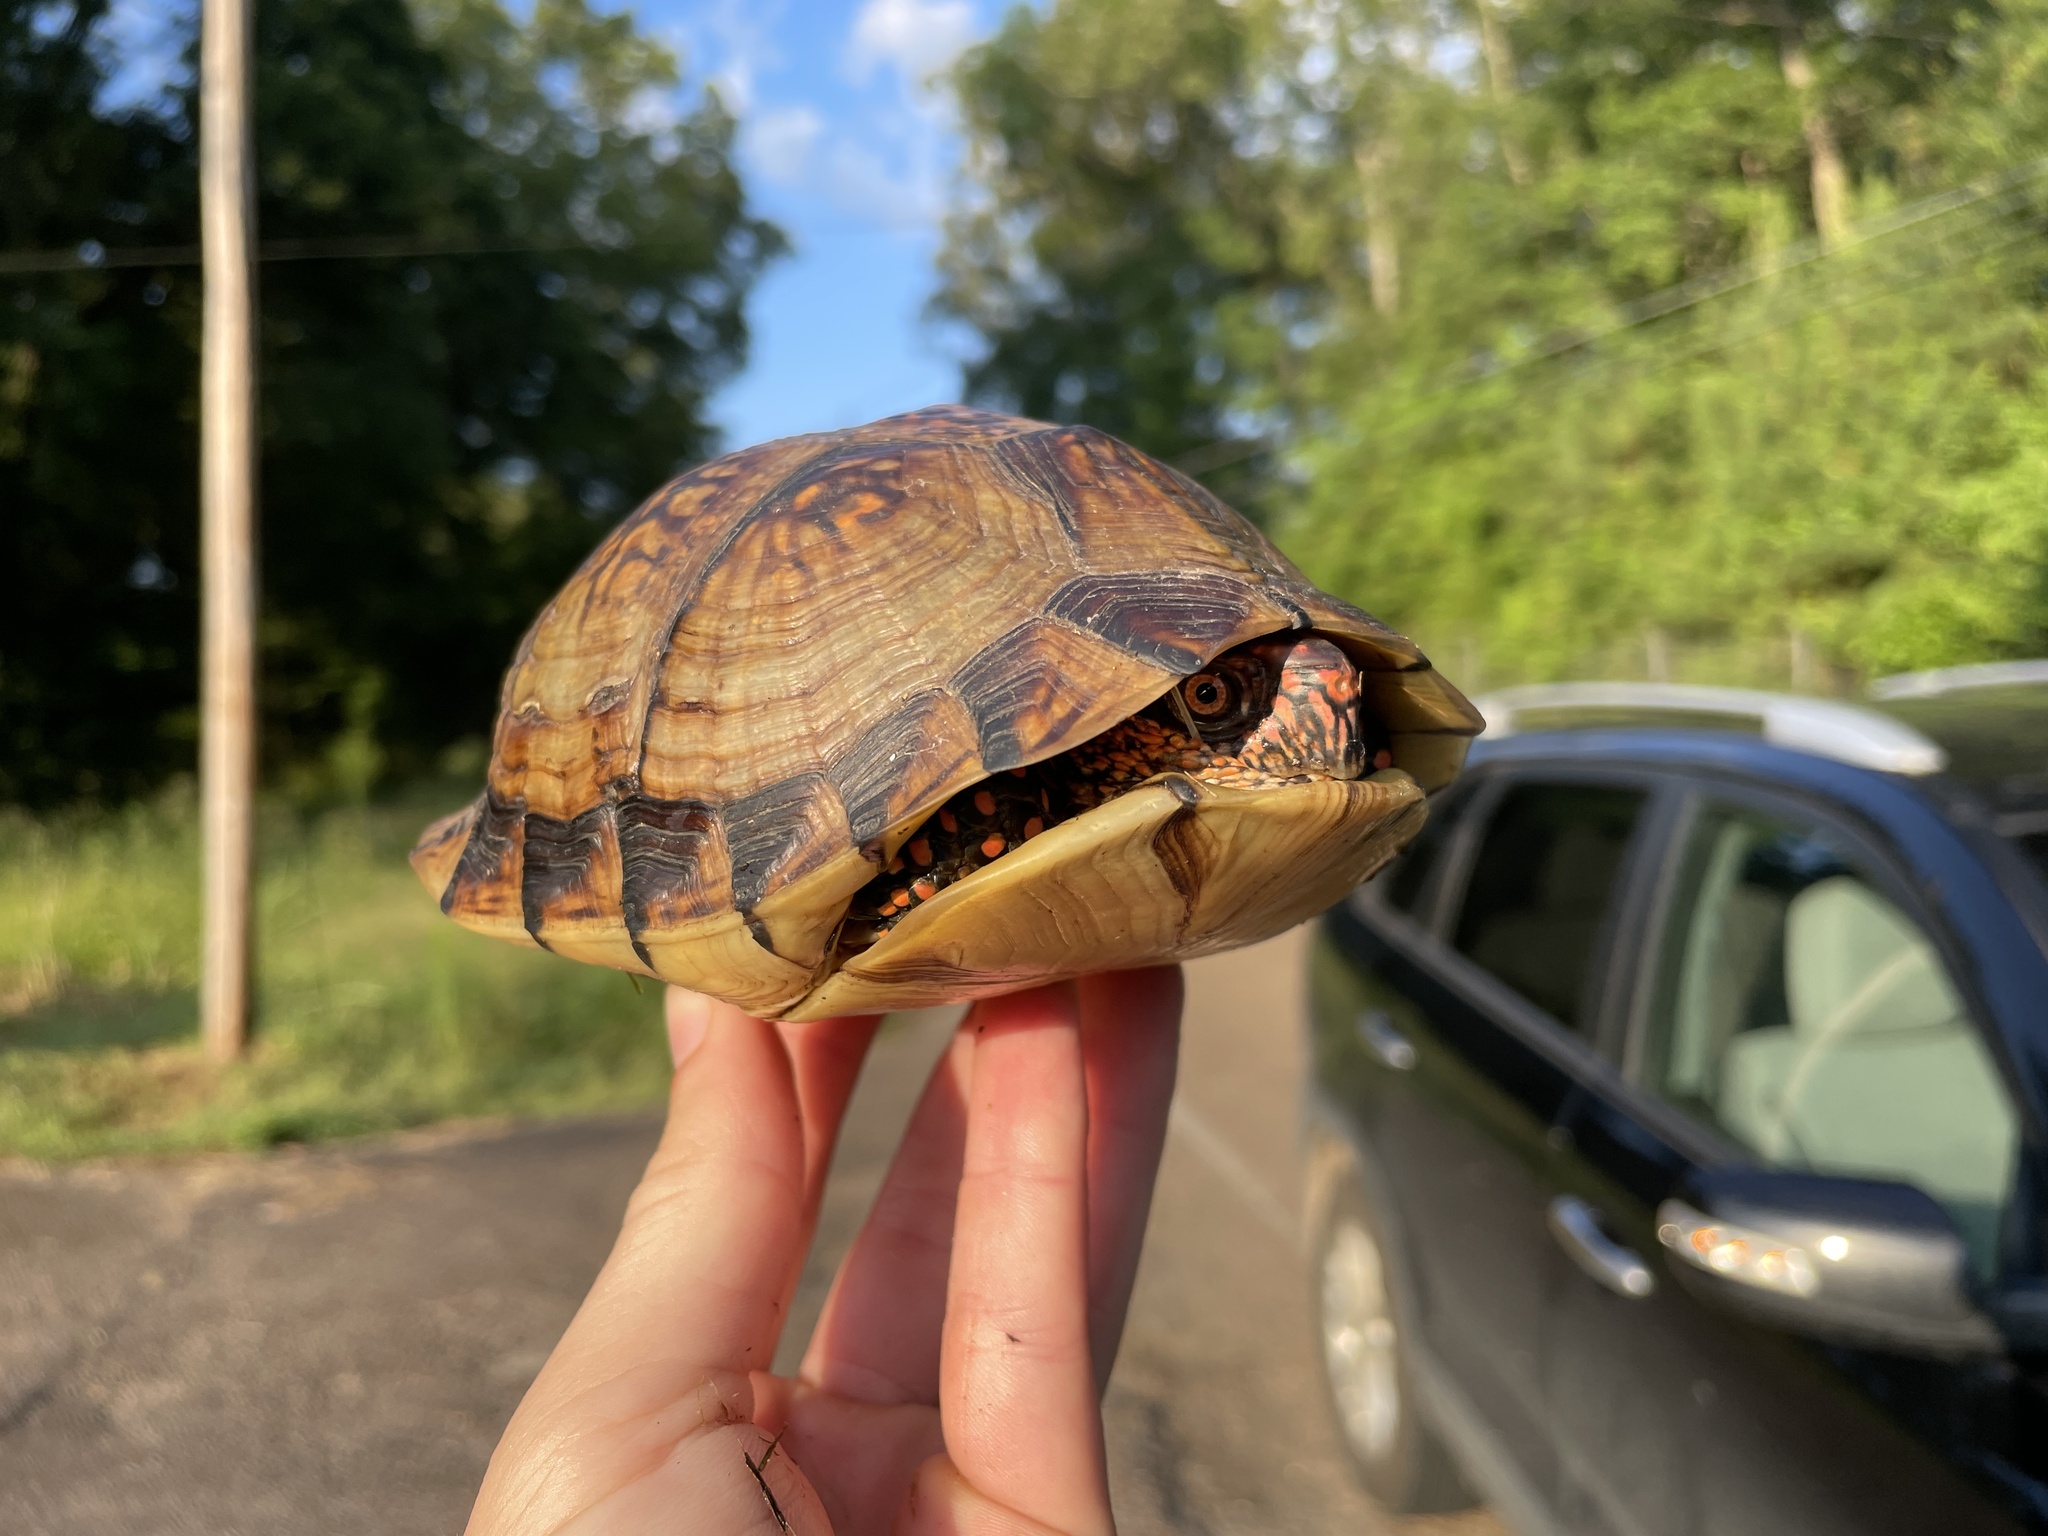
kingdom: Animalia
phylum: Chordata
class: Testudines
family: Emydidae
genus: Terrapene
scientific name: Terrapene carolina
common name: Common box turtle
